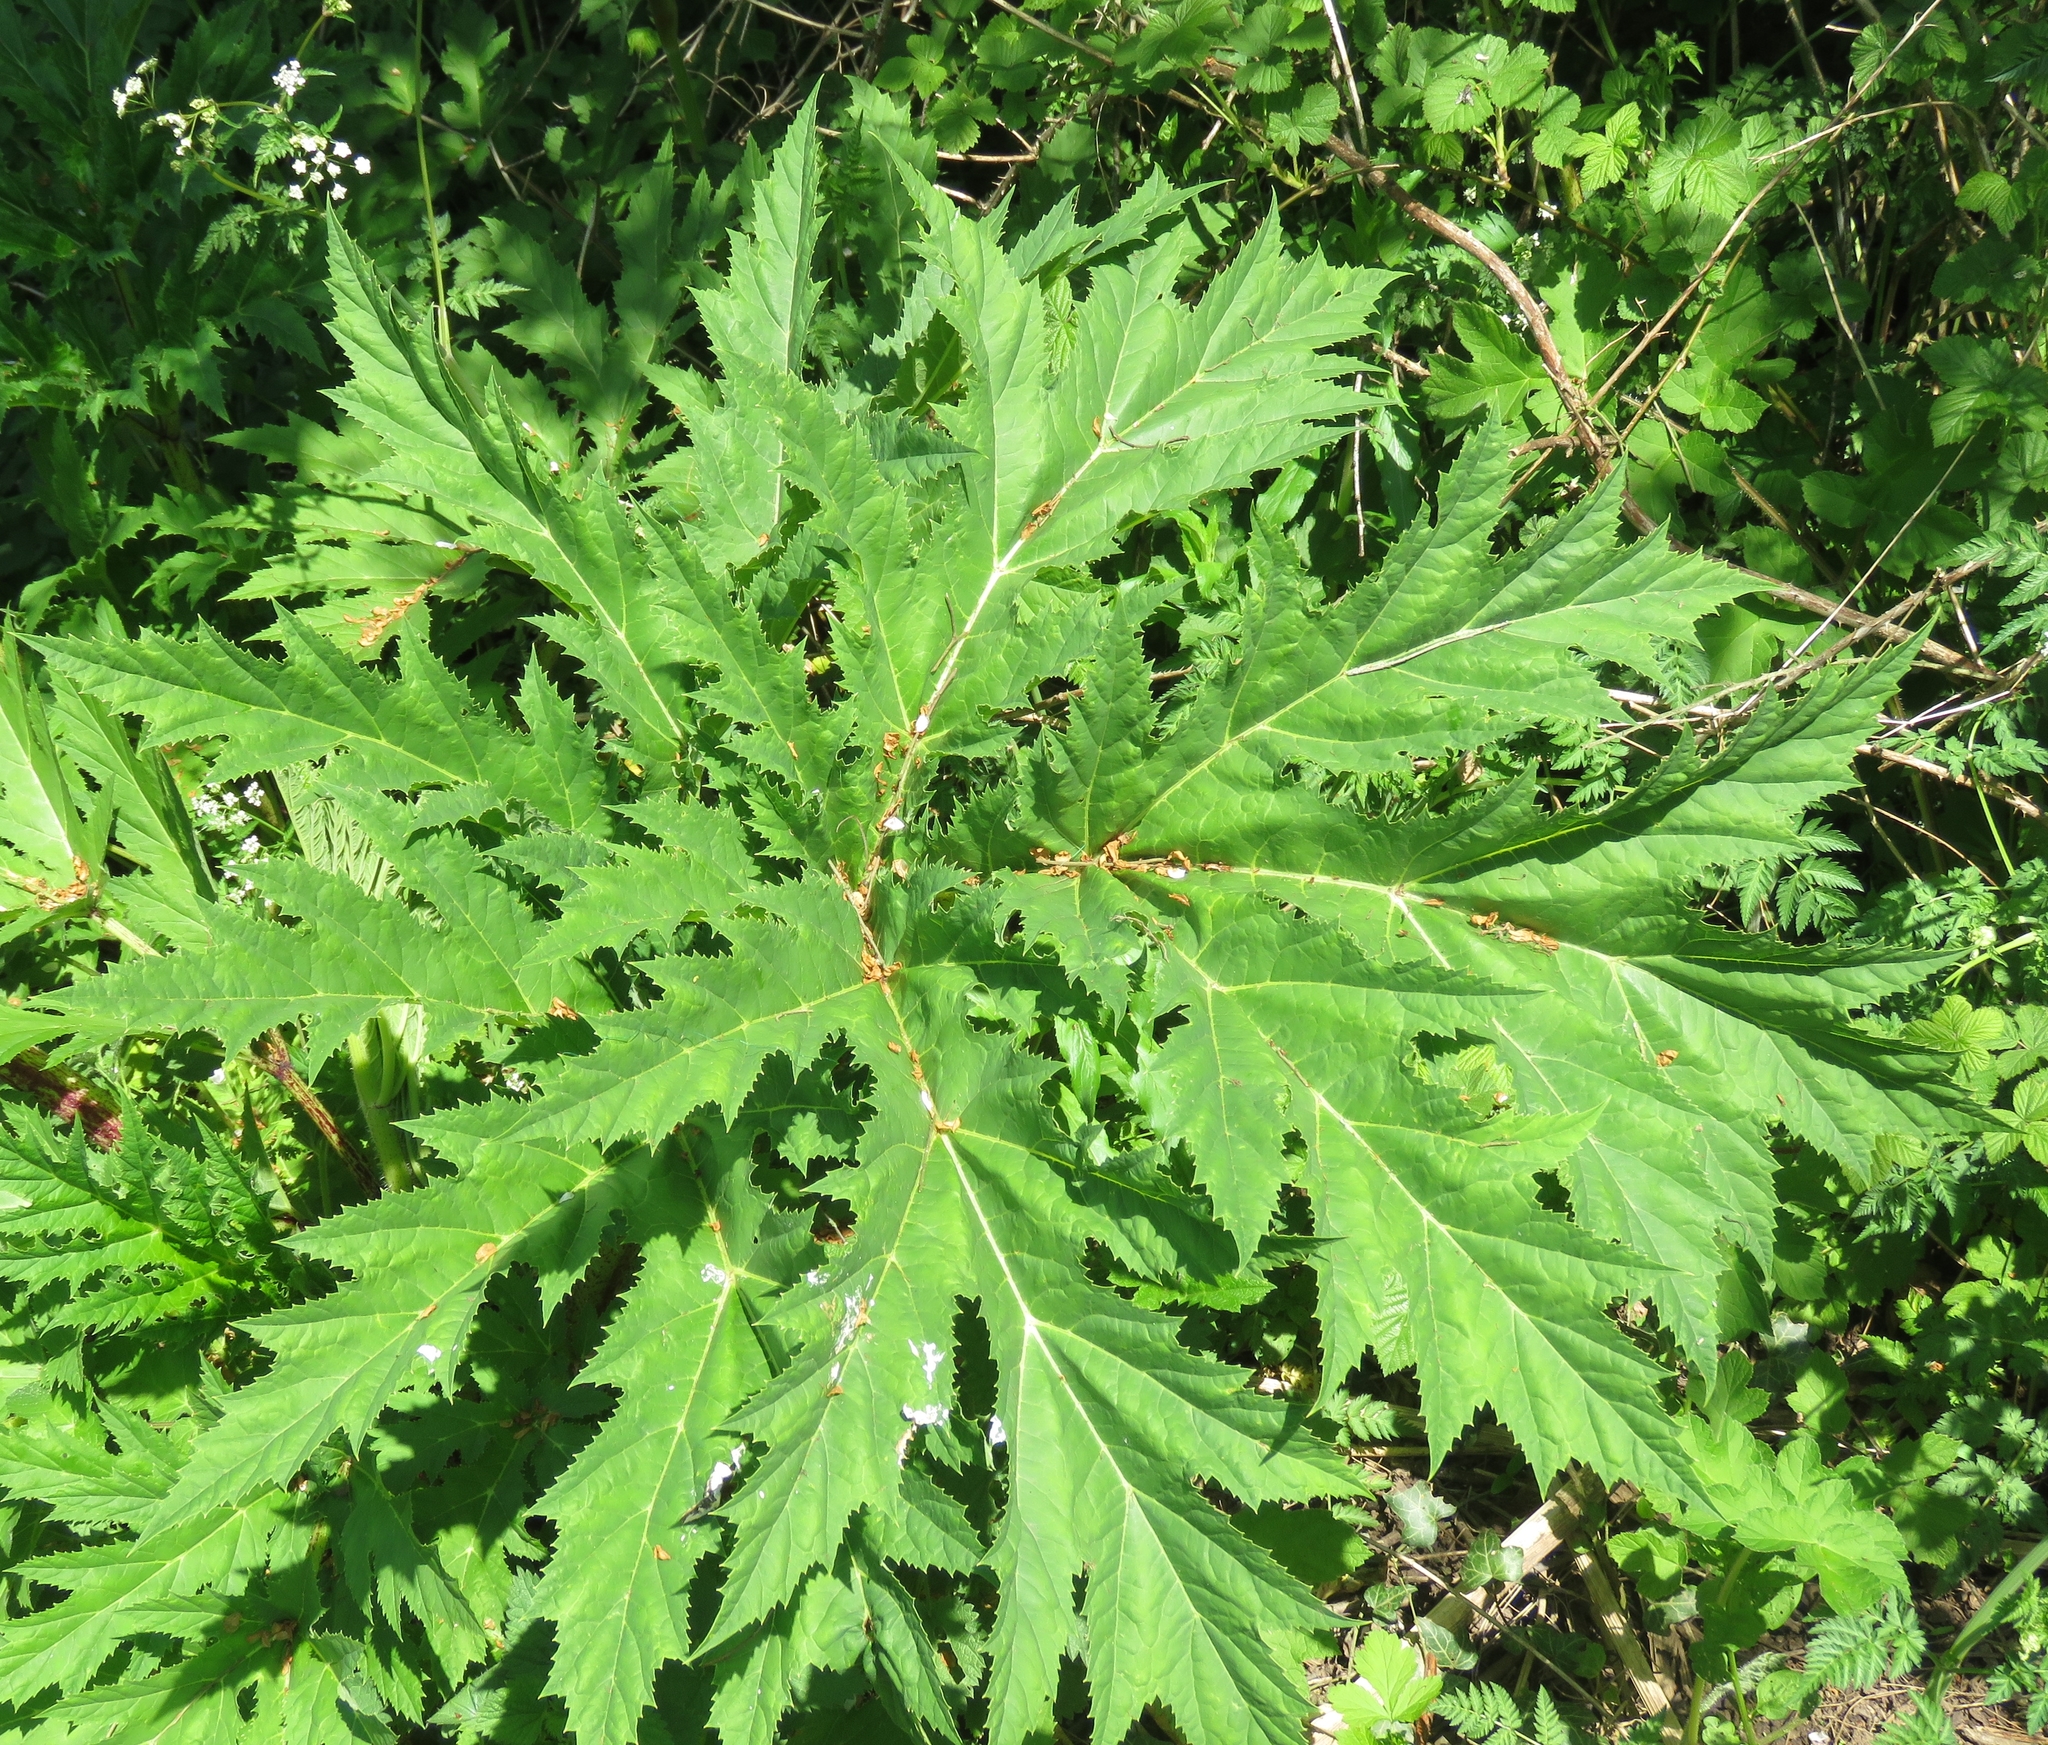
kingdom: Plantae
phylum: Tracheophyta
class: Magnoliopsida
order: Apiales
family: Apiaceae
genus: Heracleum
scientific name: Heracleum mantegazzianum
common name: Giant hogweed
